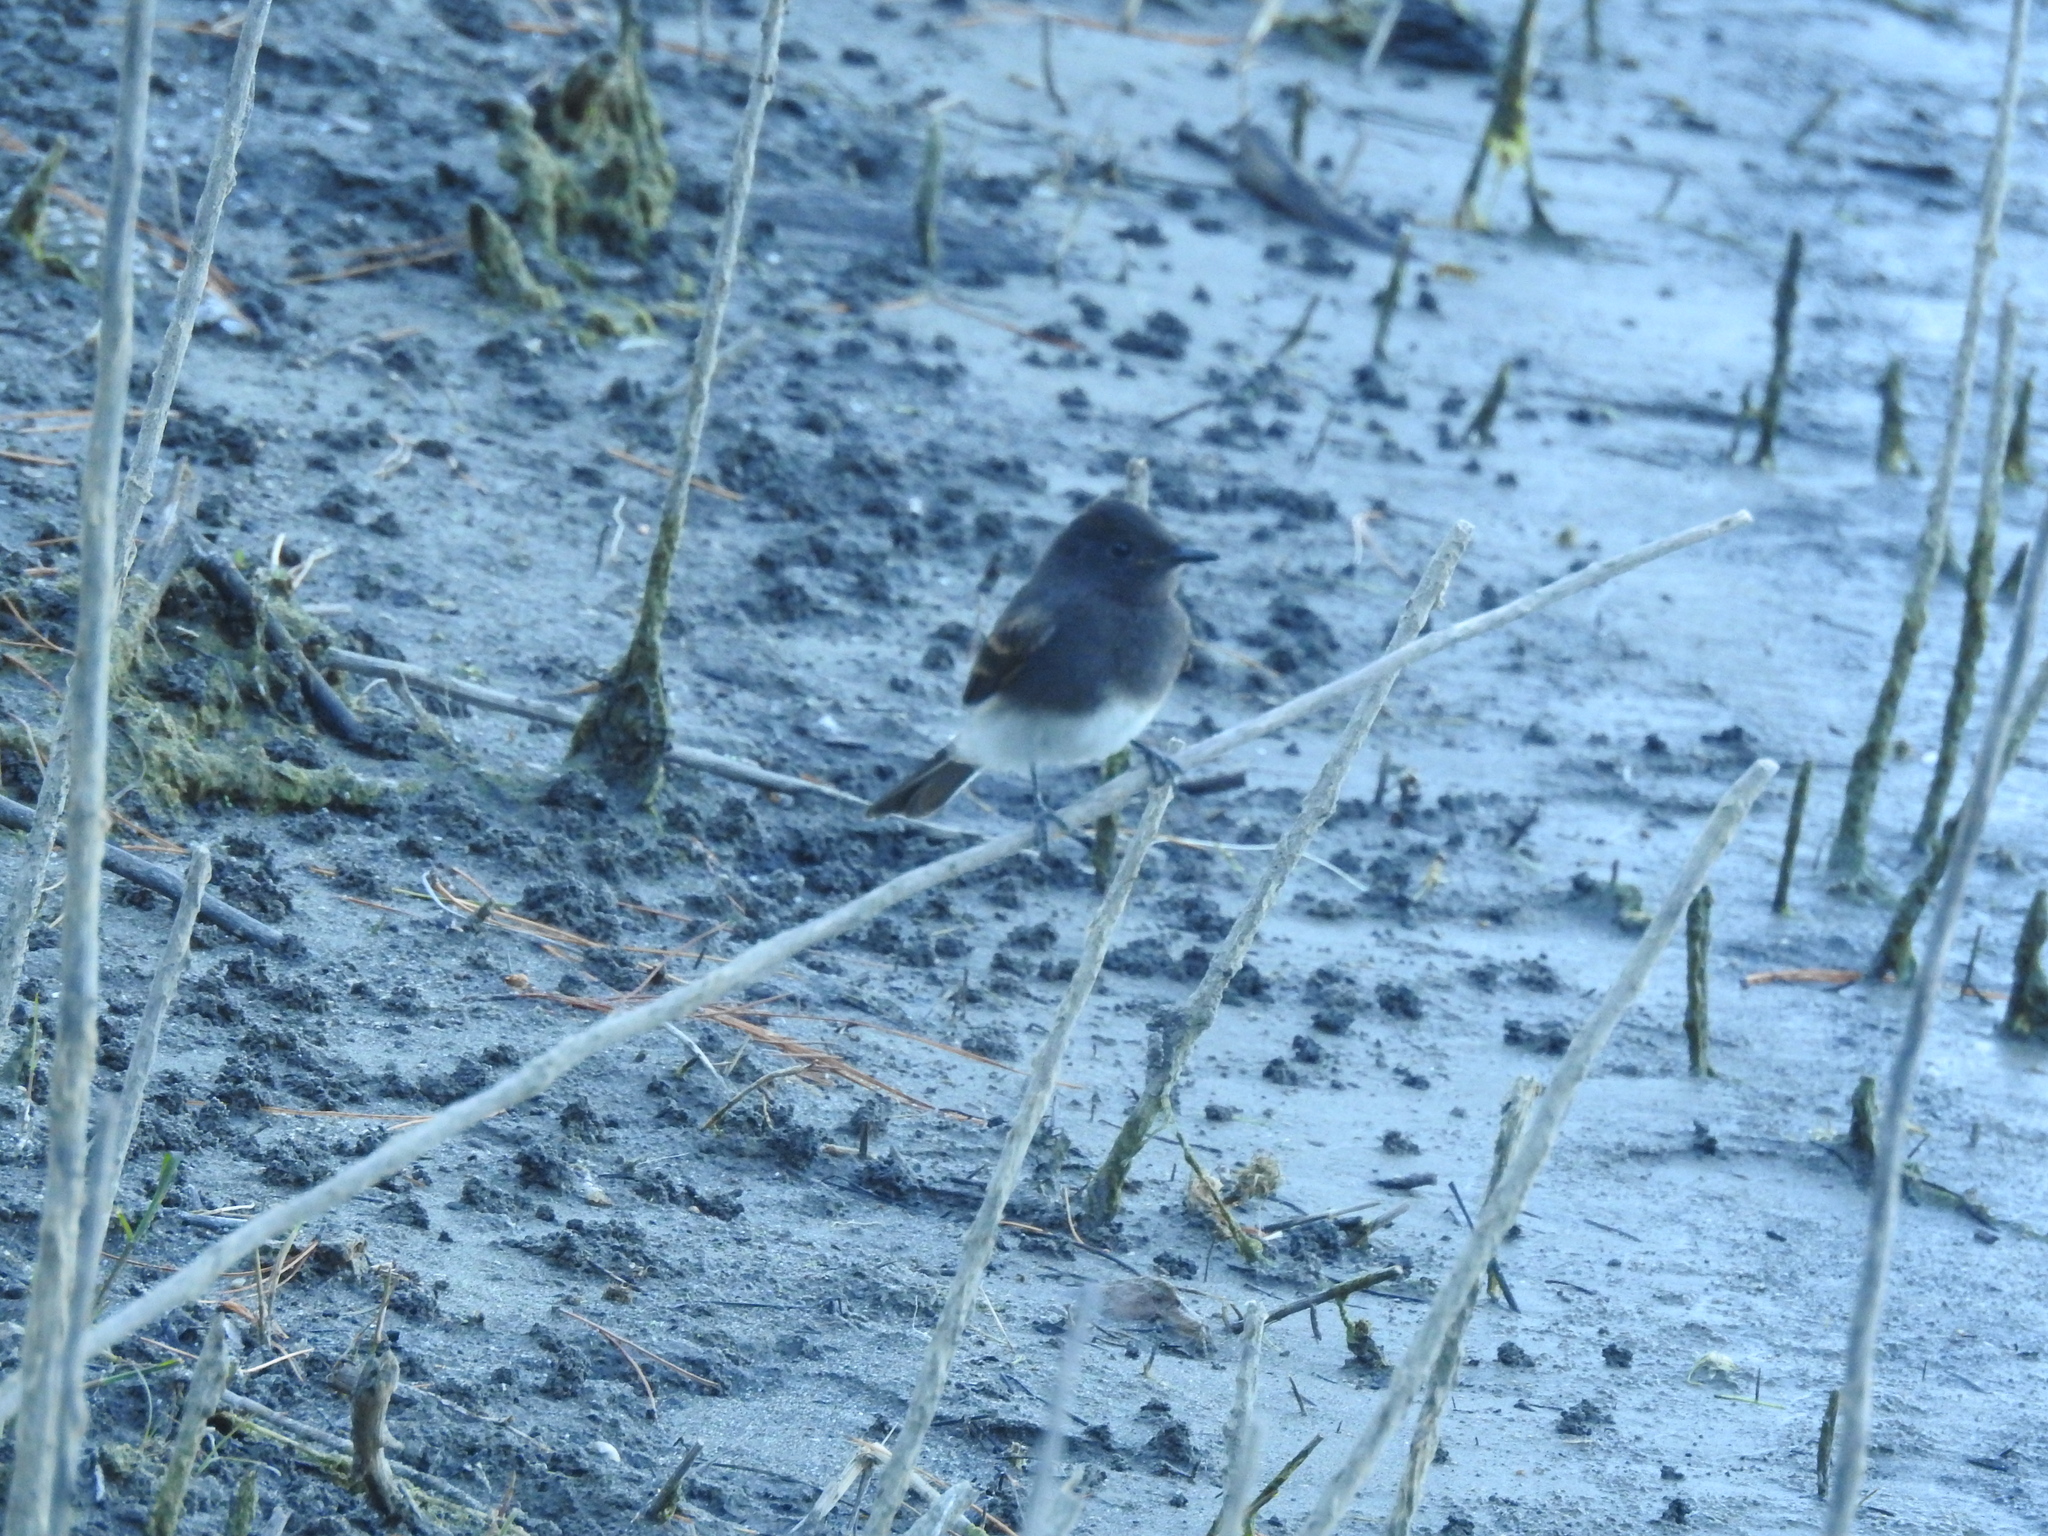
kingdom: Animalia
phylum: Chordata
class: Aves
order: Passeriformes
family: Tyrannidae
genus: Sayornis
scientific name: Sayornis nigricans
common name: Black phoebe
